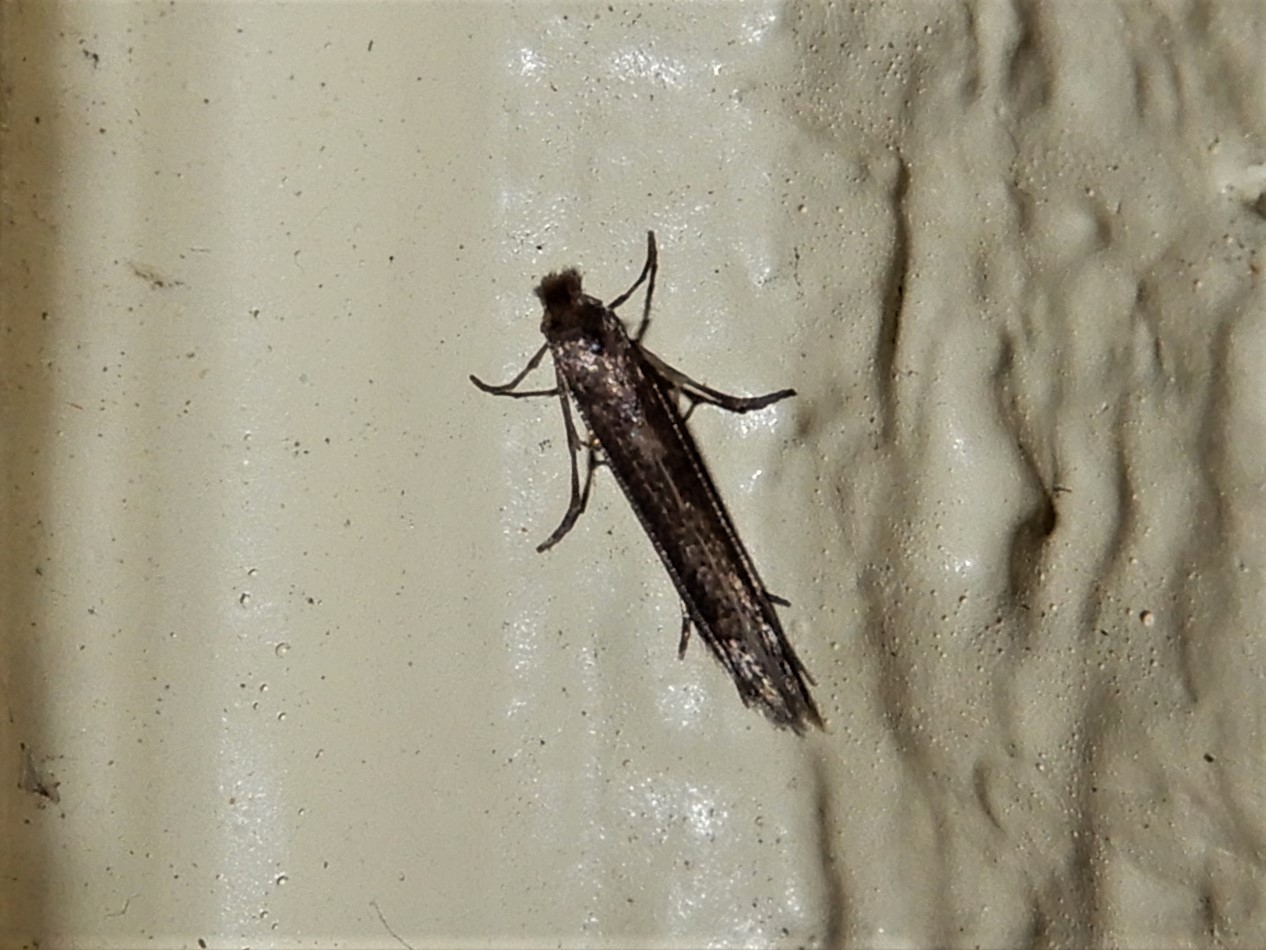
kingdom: Animalia
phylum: Arthropoda
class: Insecta
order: Lepidoptera
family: Bedelliidae
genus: Bedellia
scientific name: Bedellia somnulentella
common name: Morning-glory leafminer moth
